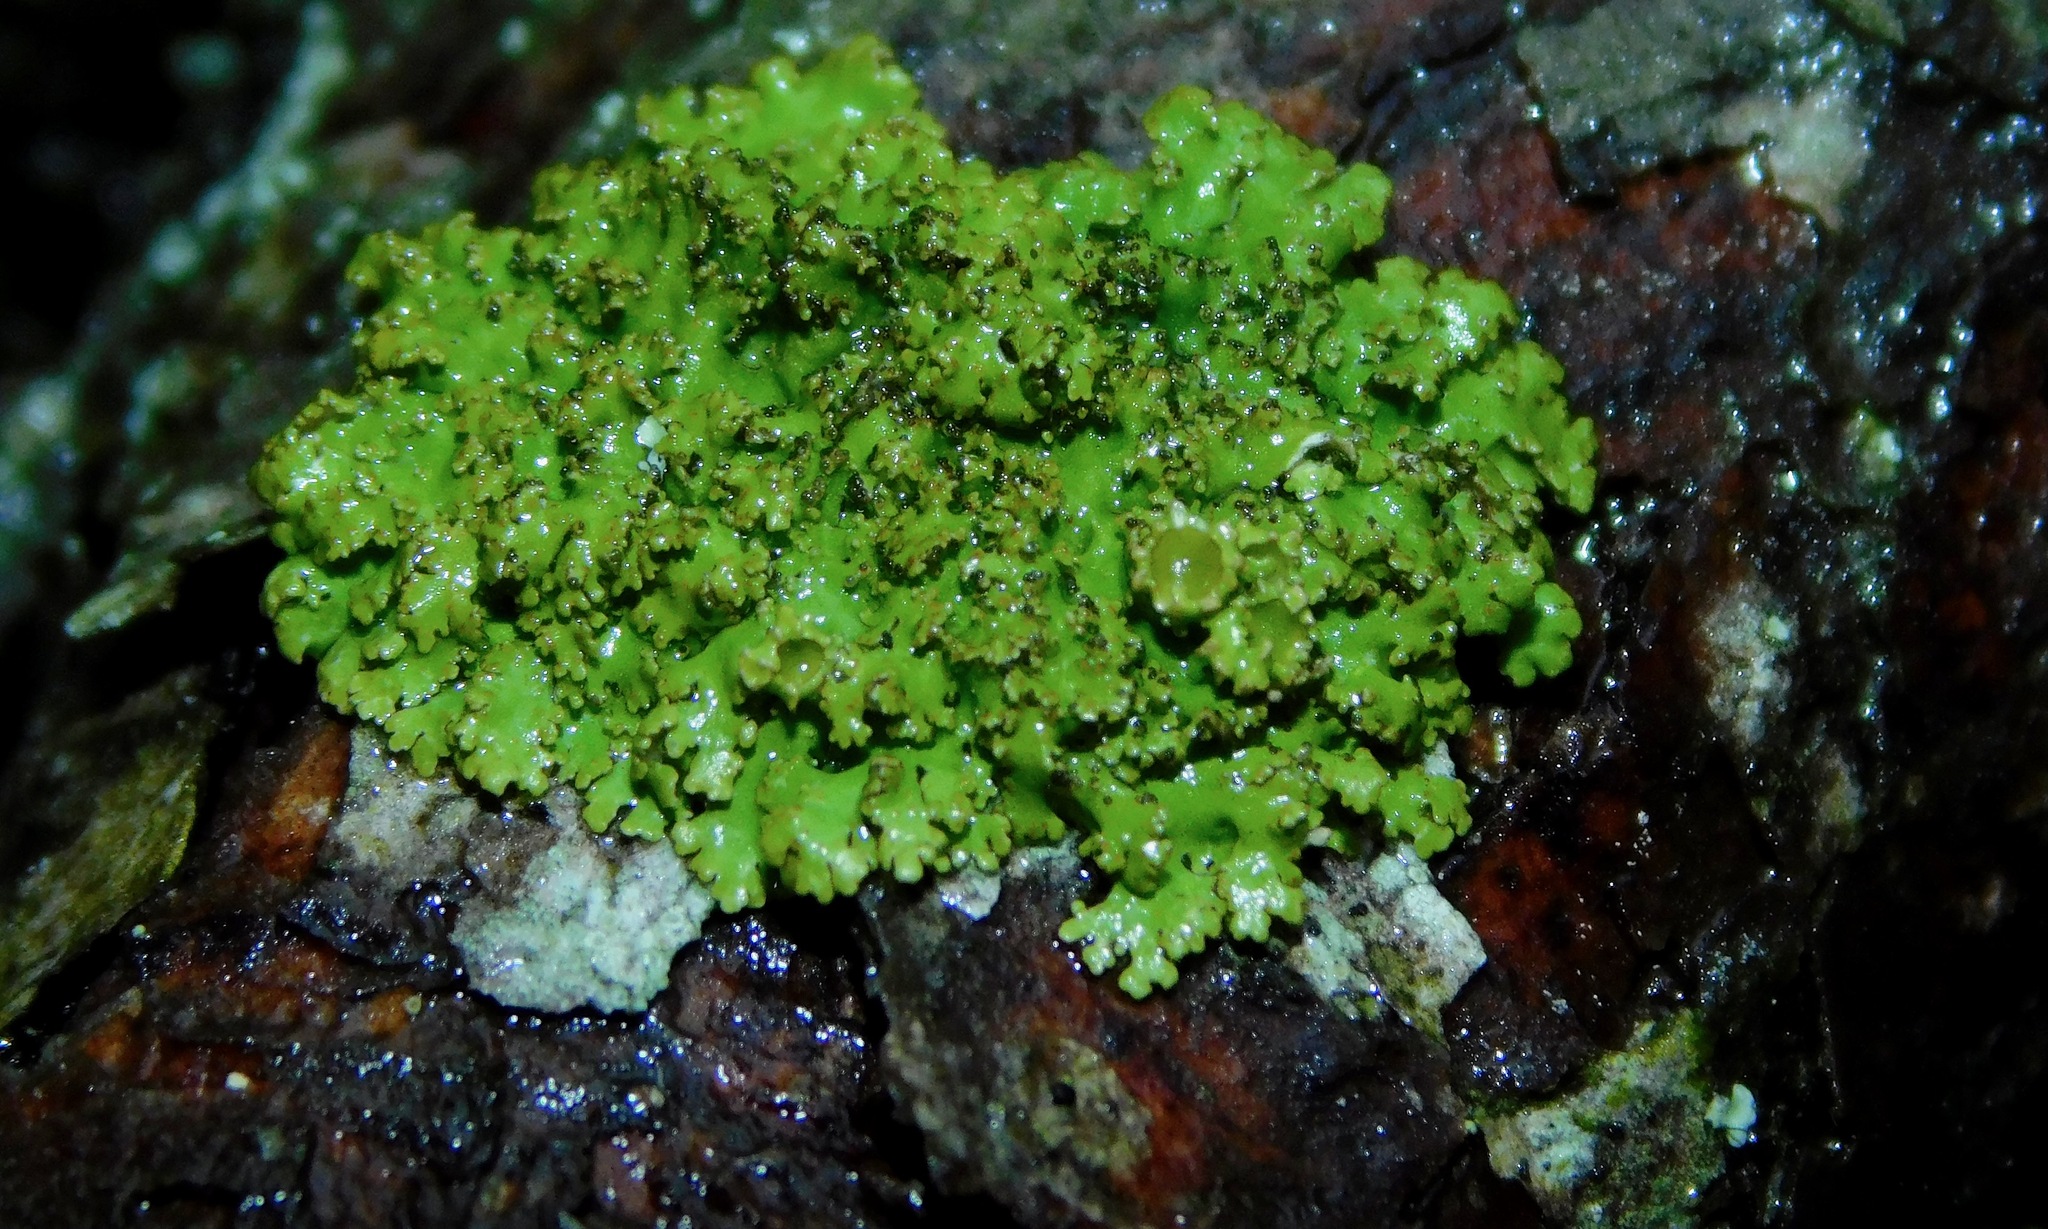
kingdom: Fungi
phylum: Ascomycota
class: Lecanoromycetes
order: Lecanorales
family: Parmeliaceae
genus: Vulpicida
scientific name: Vulpicida viridis
